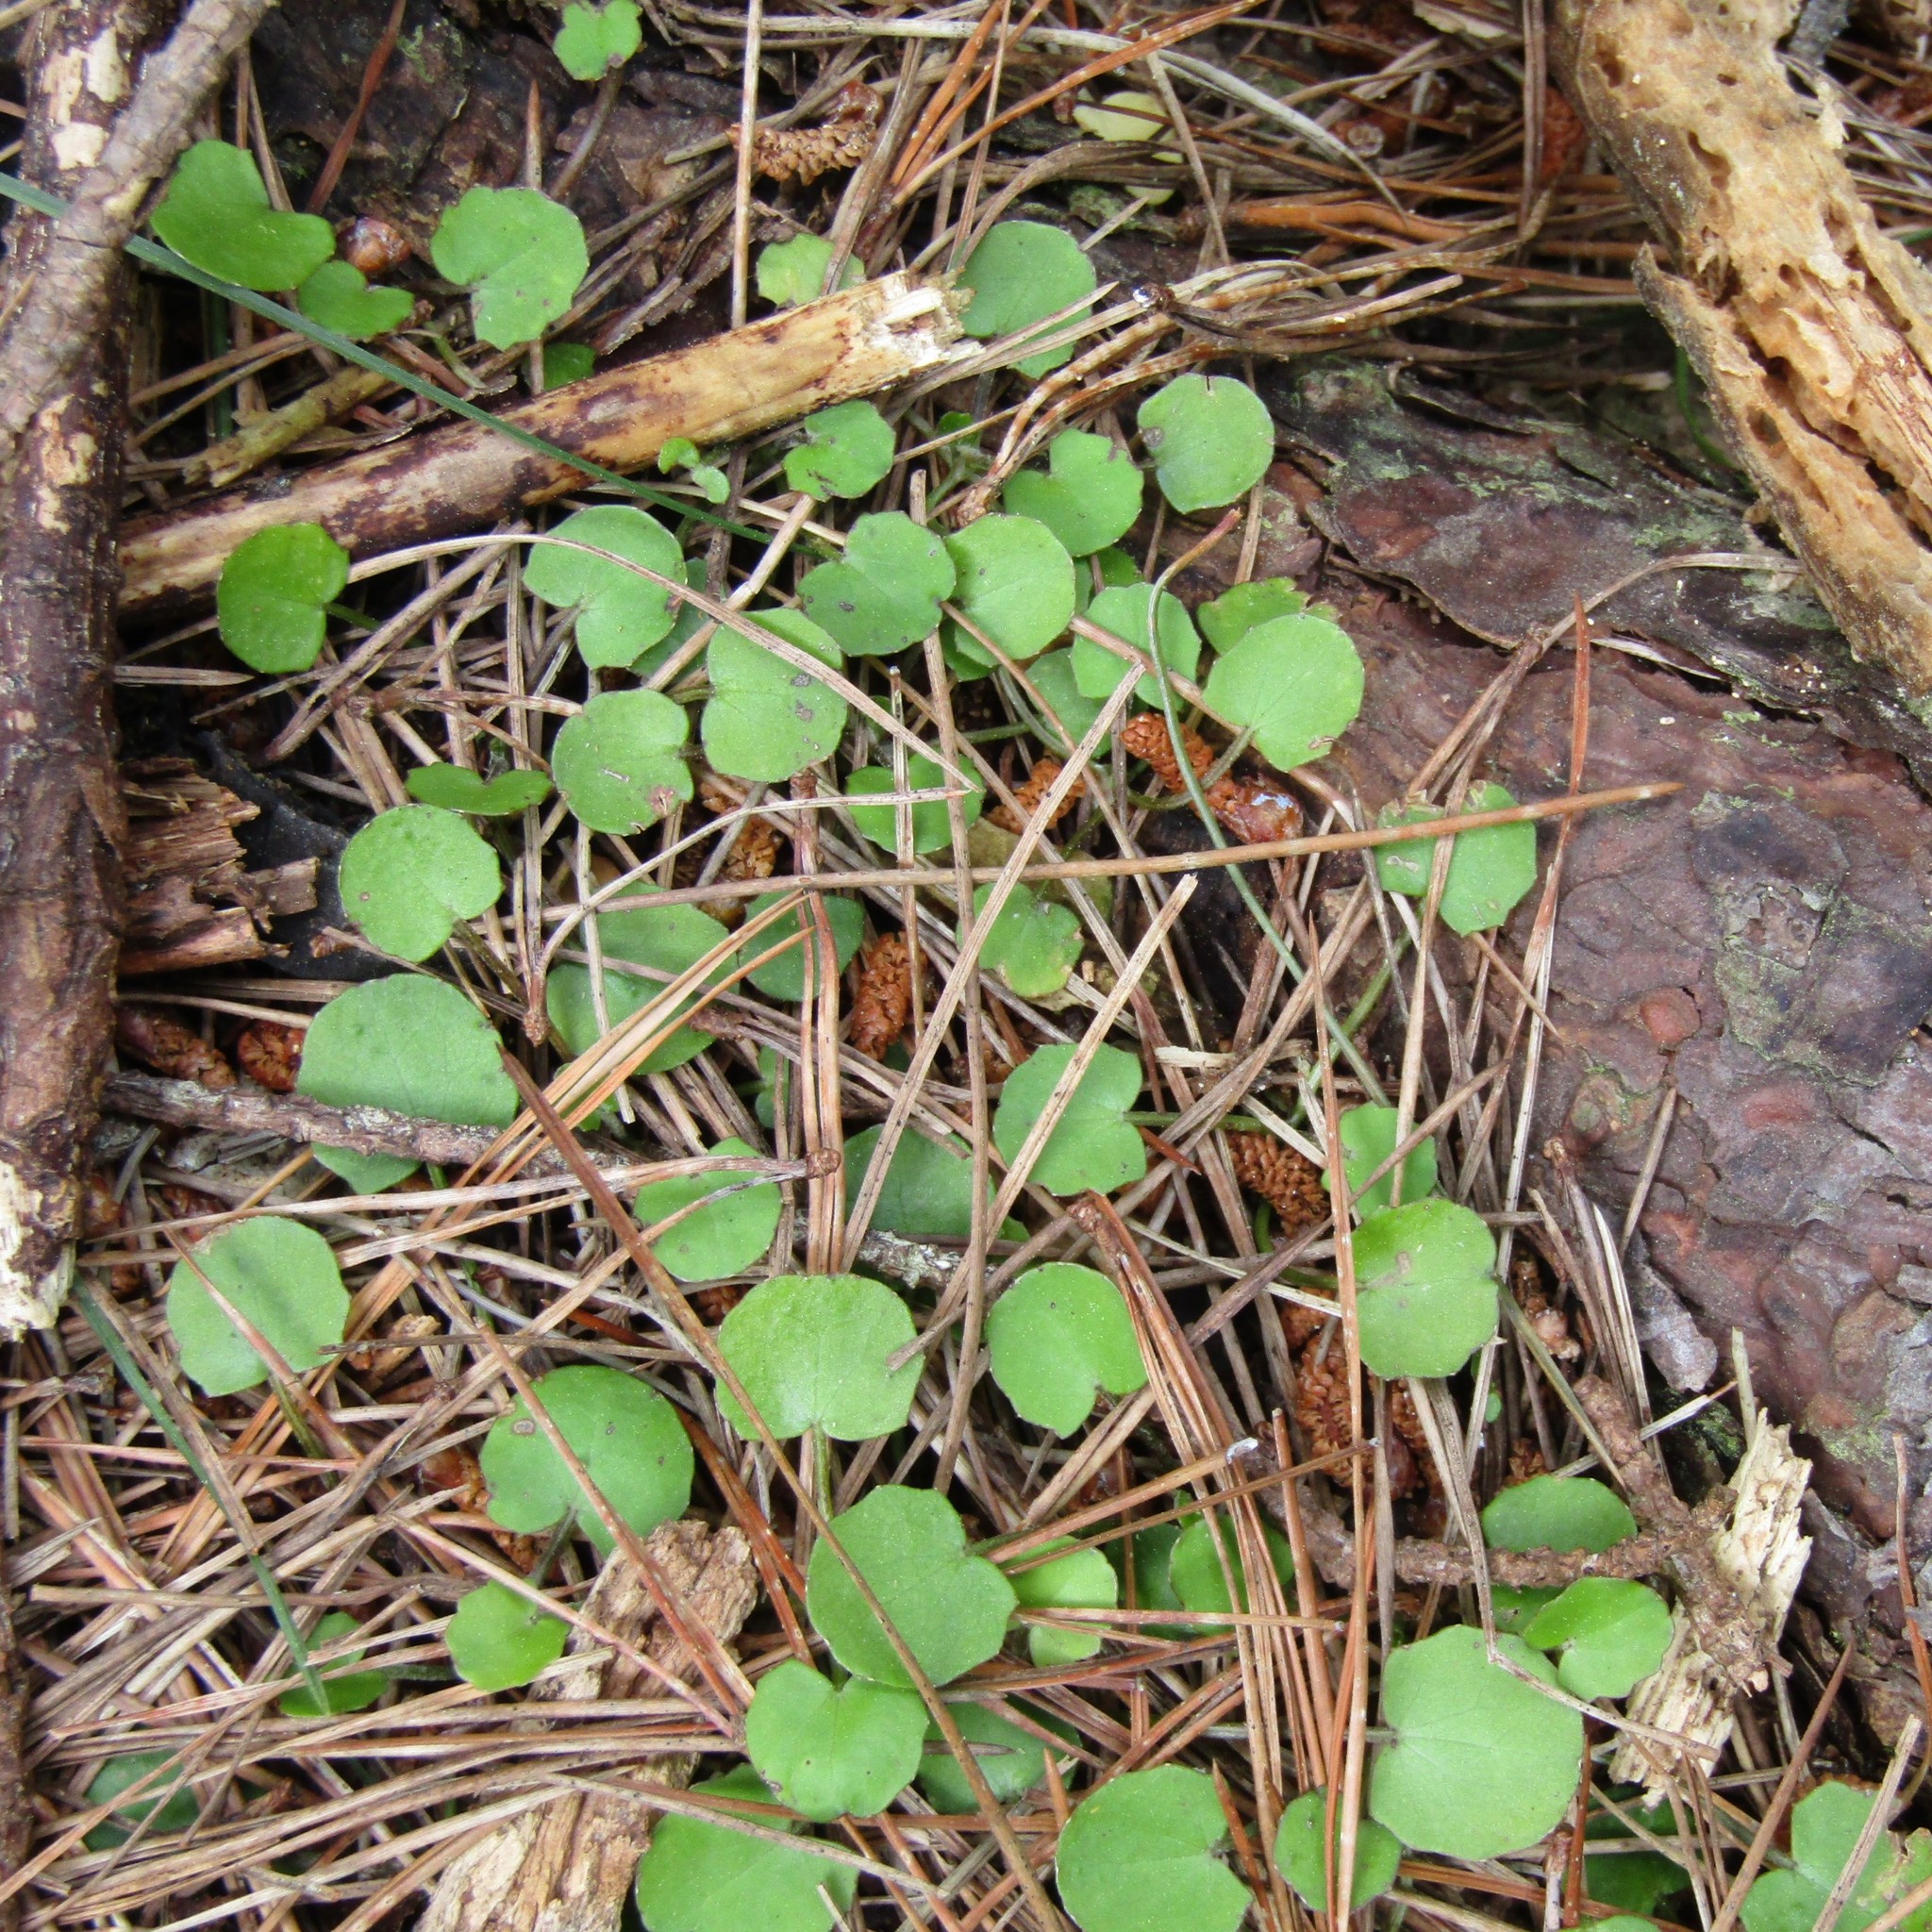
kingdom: Plantae
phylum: Tracheophyta
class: Magnoliopsida
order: Apiales
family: Apiaceae
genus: Centella
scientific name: Centella uniflora
